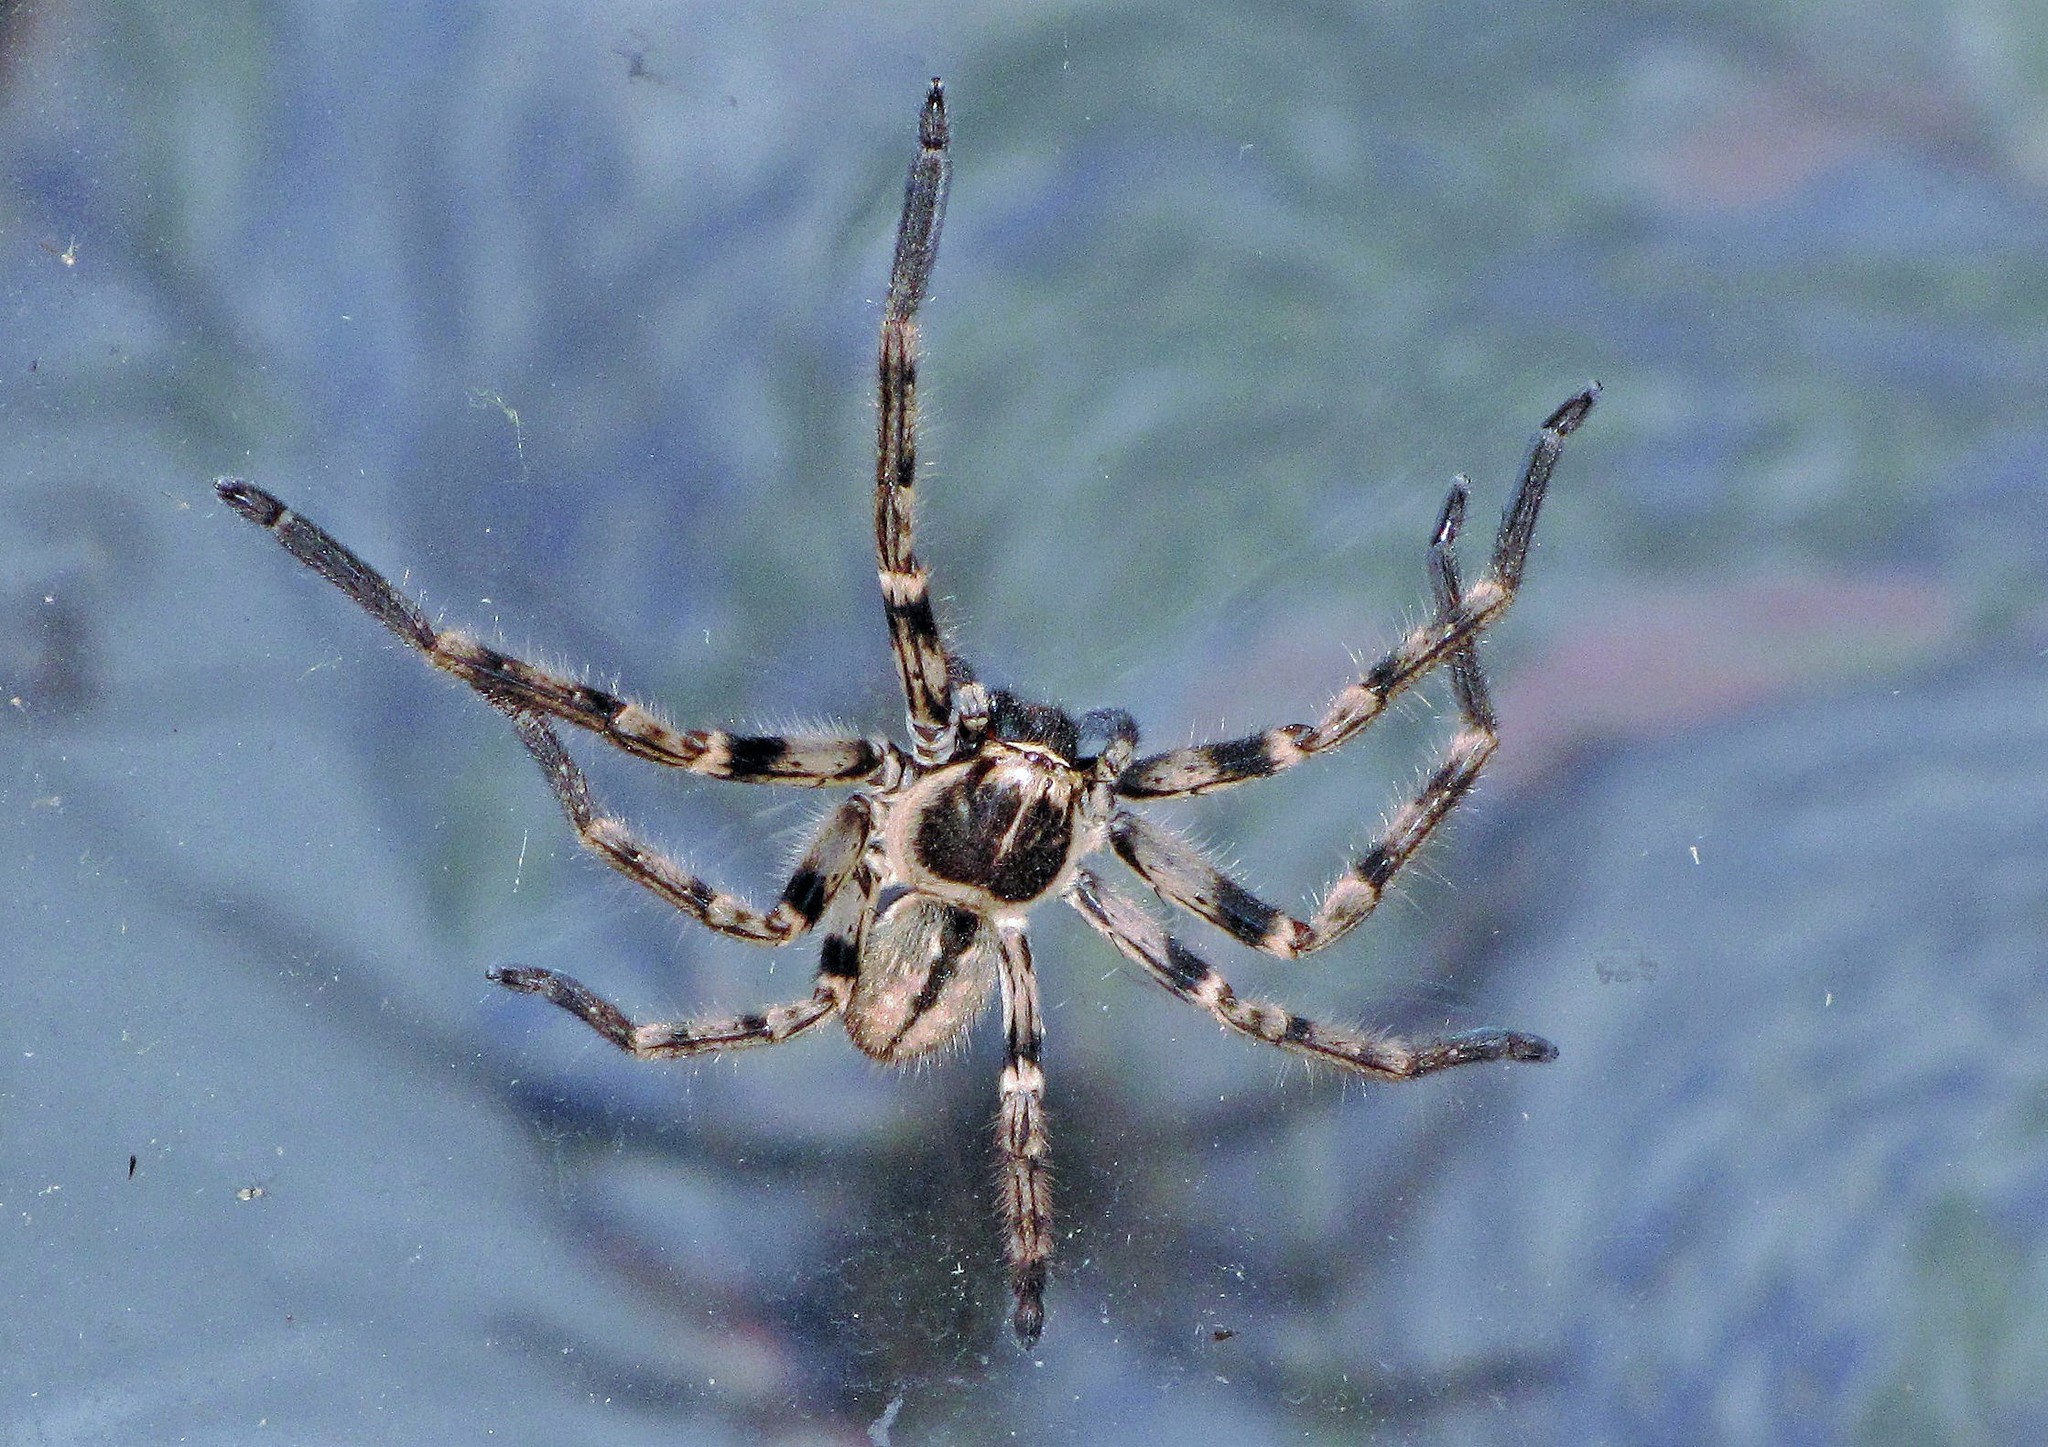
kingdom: Animalia
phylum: Arthropoda
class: Arachnida
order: Araneae
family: Sparassidae
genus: Polybetes
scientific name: Polybetes pythagoricus
